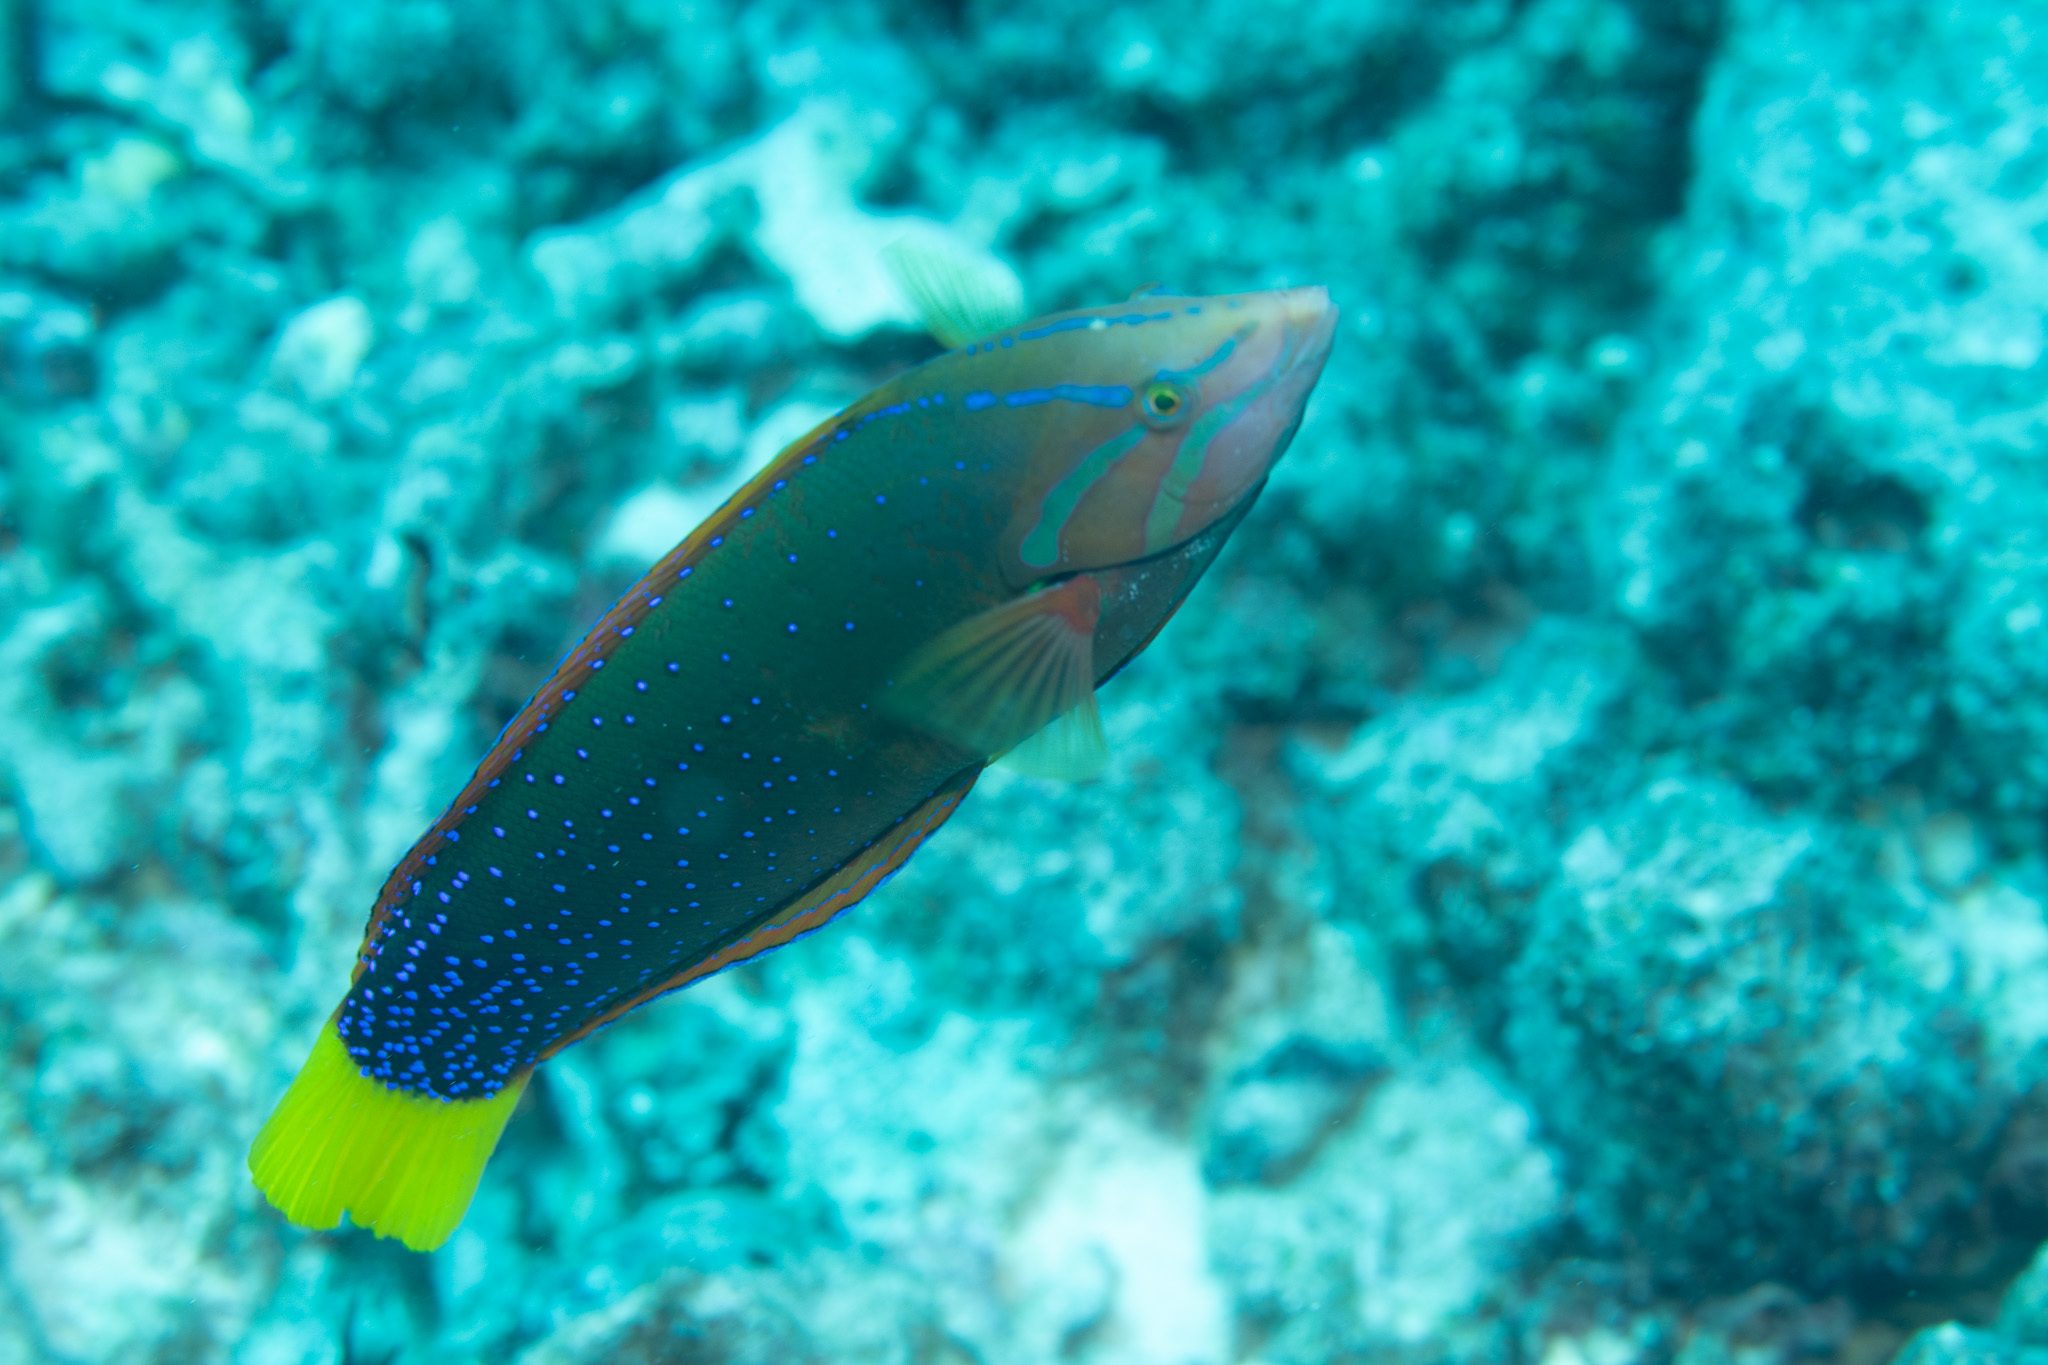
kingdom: Animalia
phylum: Chordata
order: Perciformes
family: Labridae
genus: Coris
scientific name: Coris gaimard
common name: Yellowtail coris
